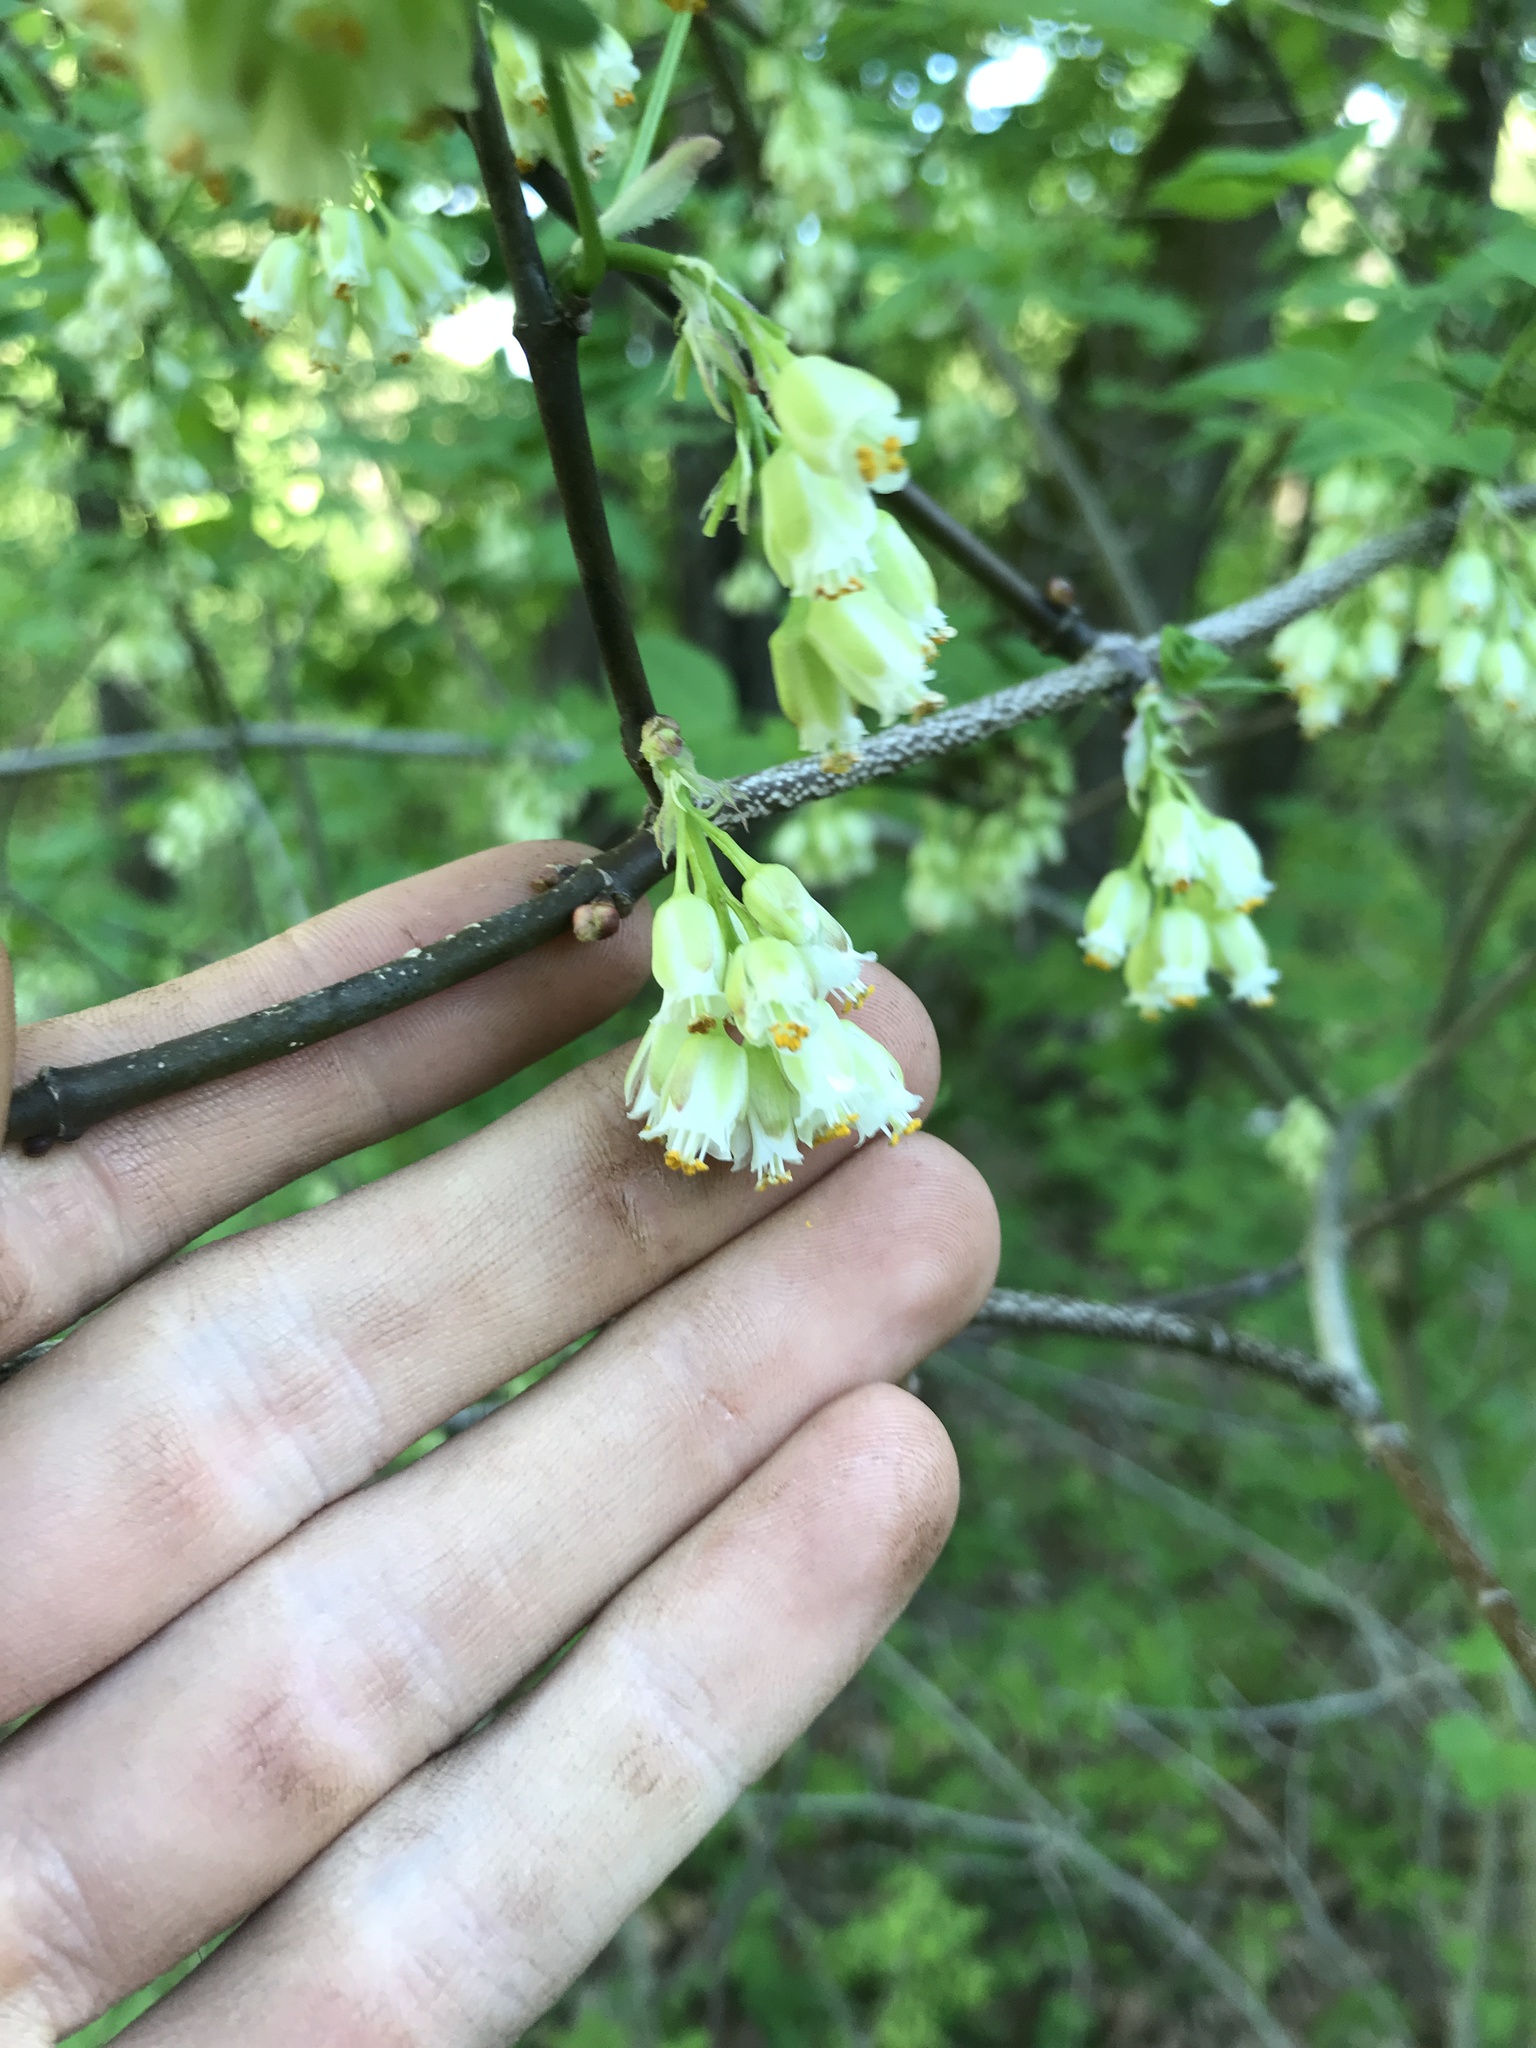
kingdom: Plantae
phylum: Tracheophyta
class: Magnoliopsida
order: Crossosomatales
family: Staphyleaceae
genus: Staphylea
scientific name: Staphylea trifolia
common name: American bladdernut
